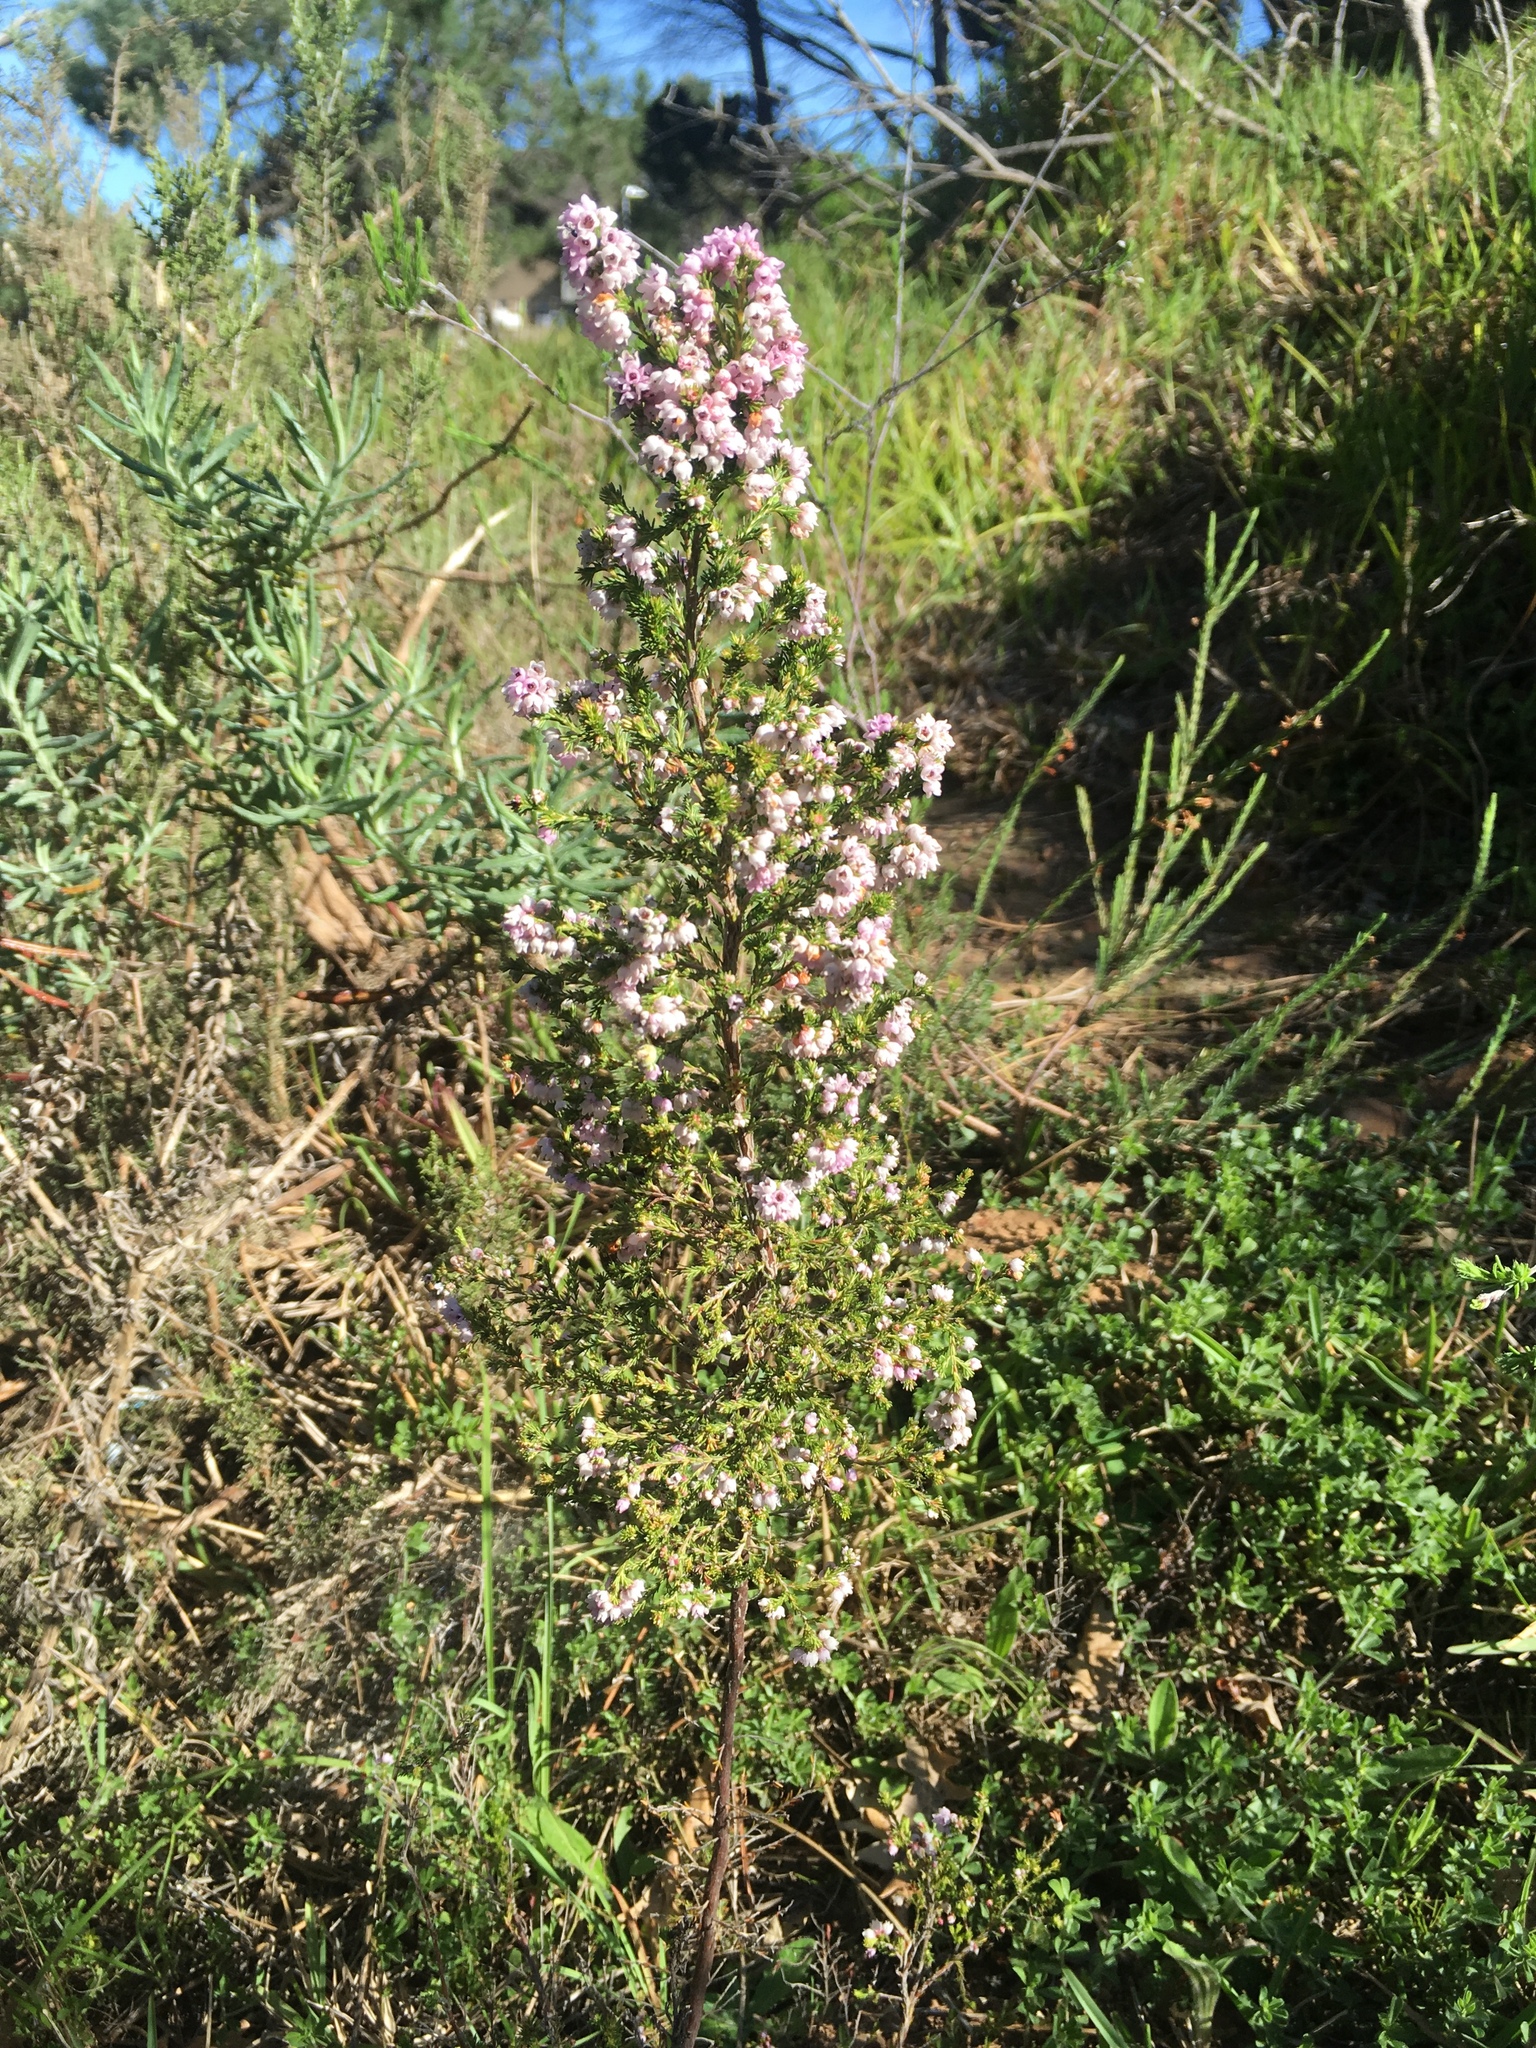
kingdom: Plantae
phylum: Tracheophyta
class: Magnoliopsida
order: Ericales
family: Ericaceae
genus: Erica
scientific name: Erica mauritanica
